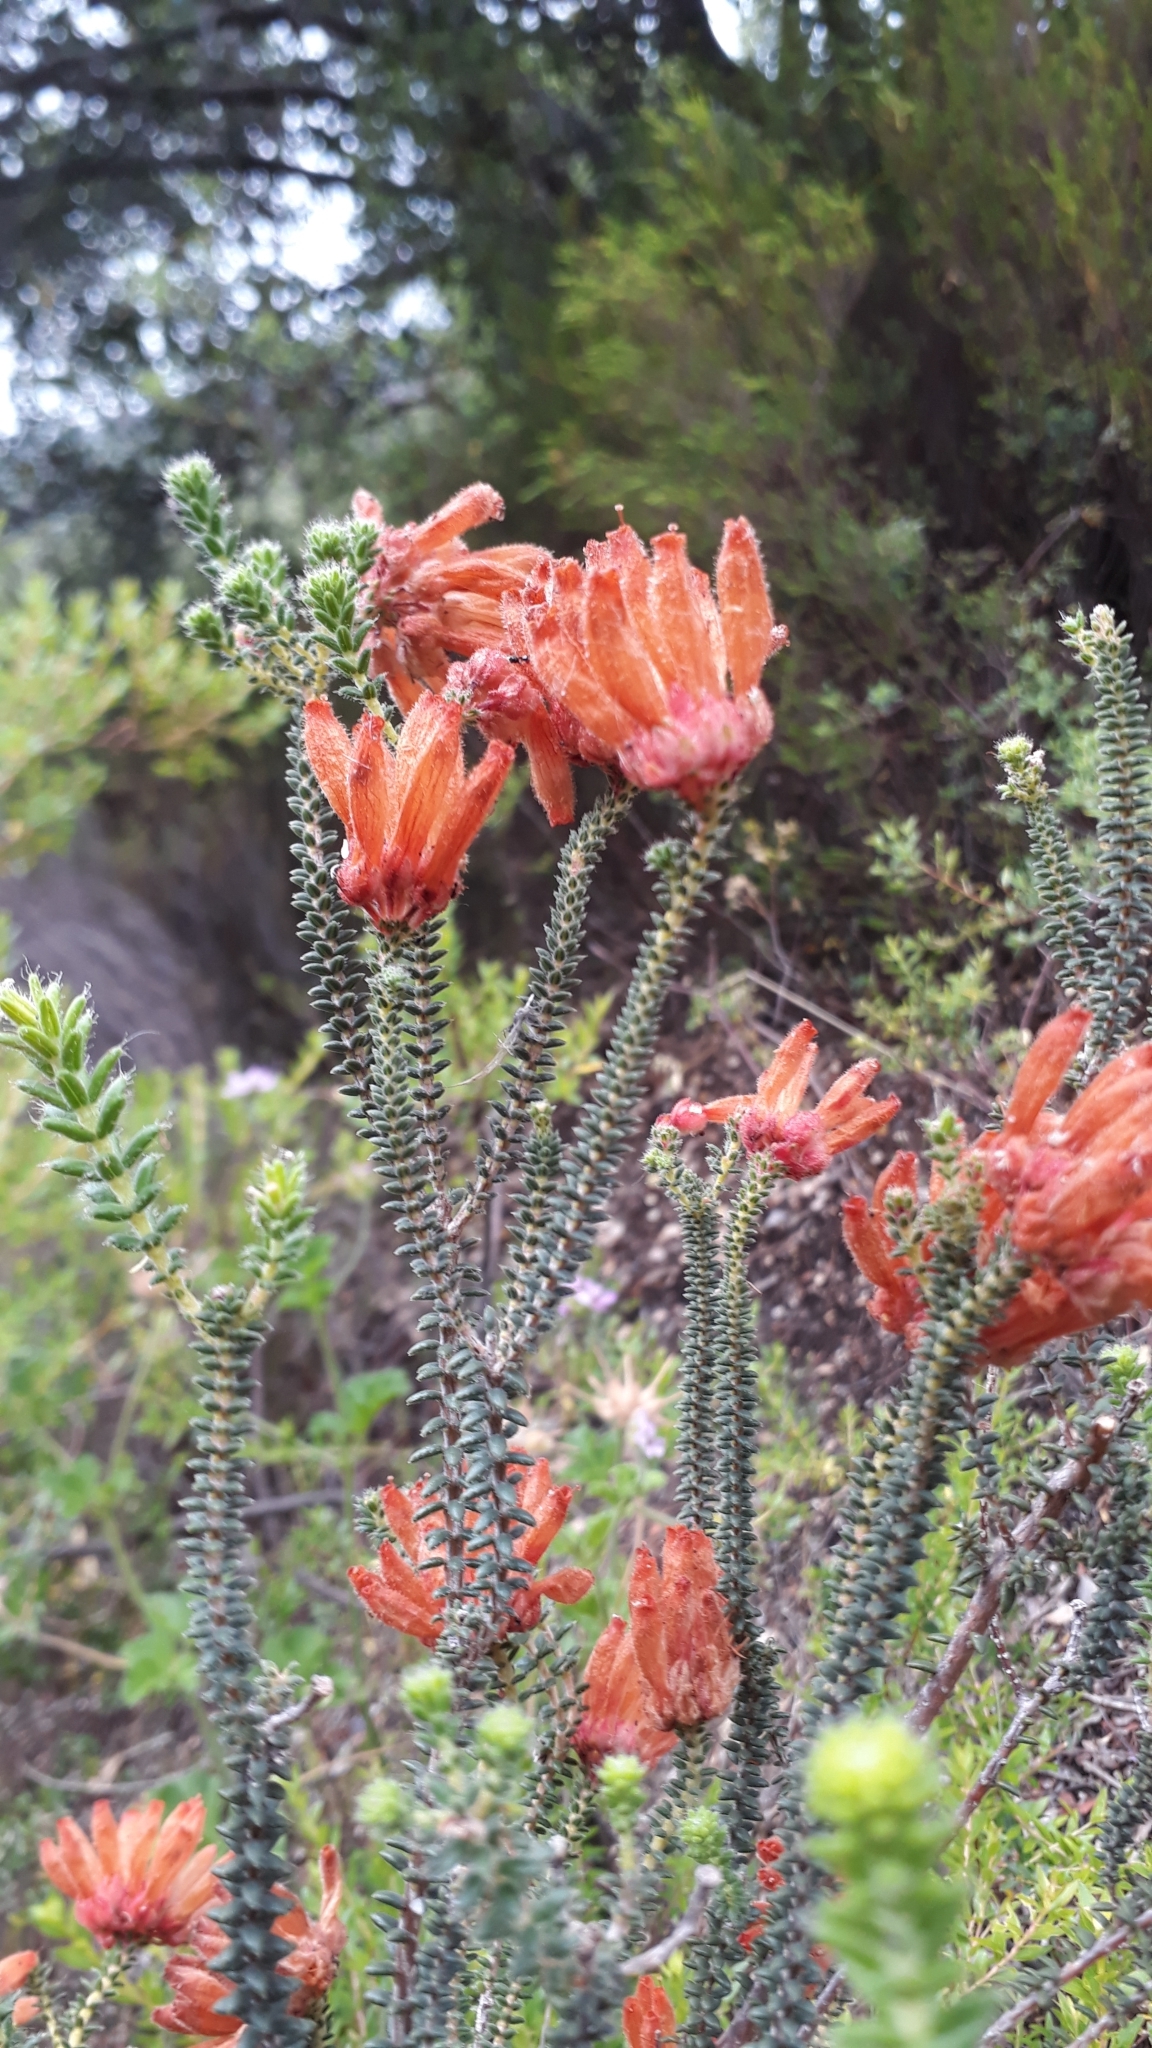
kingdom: Plantae
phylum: Tracheophyta
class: Magnoliopsida
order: Ericales
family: Ericaceae
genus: Erica
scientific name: Erica cerinthoides
